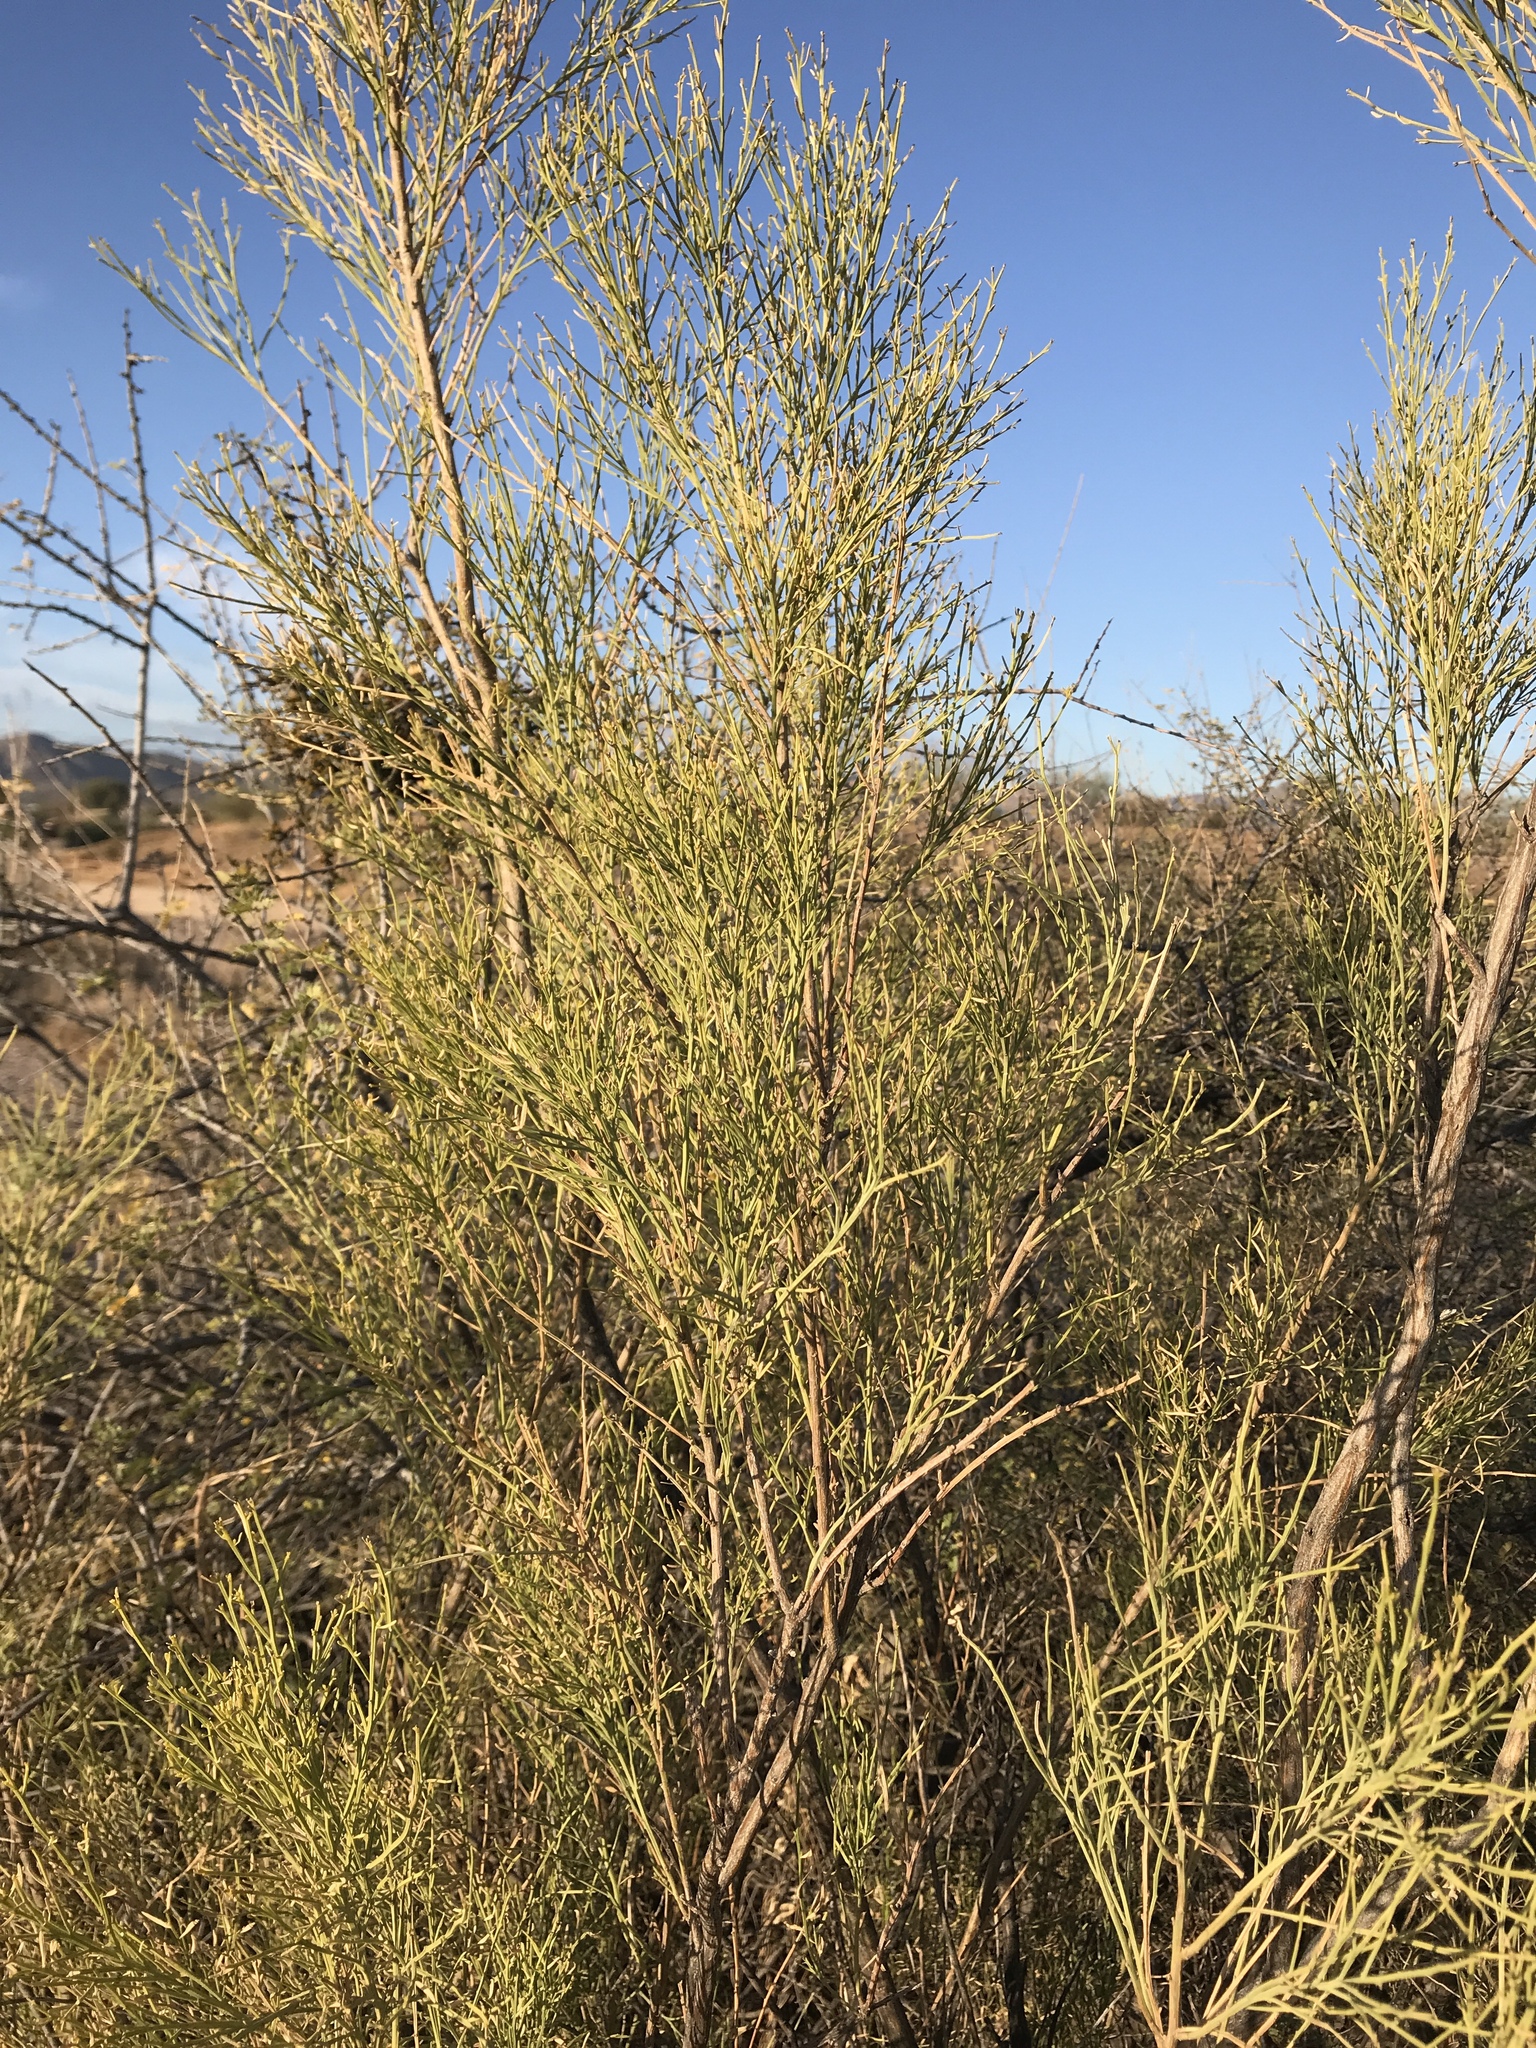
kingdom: Plantae
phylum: Tracheophyta
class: Magnoliopsida
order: Asterales
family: Asteraceae
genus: Baccharis
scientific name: Baccharis sarothroides
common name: Desert-broom
